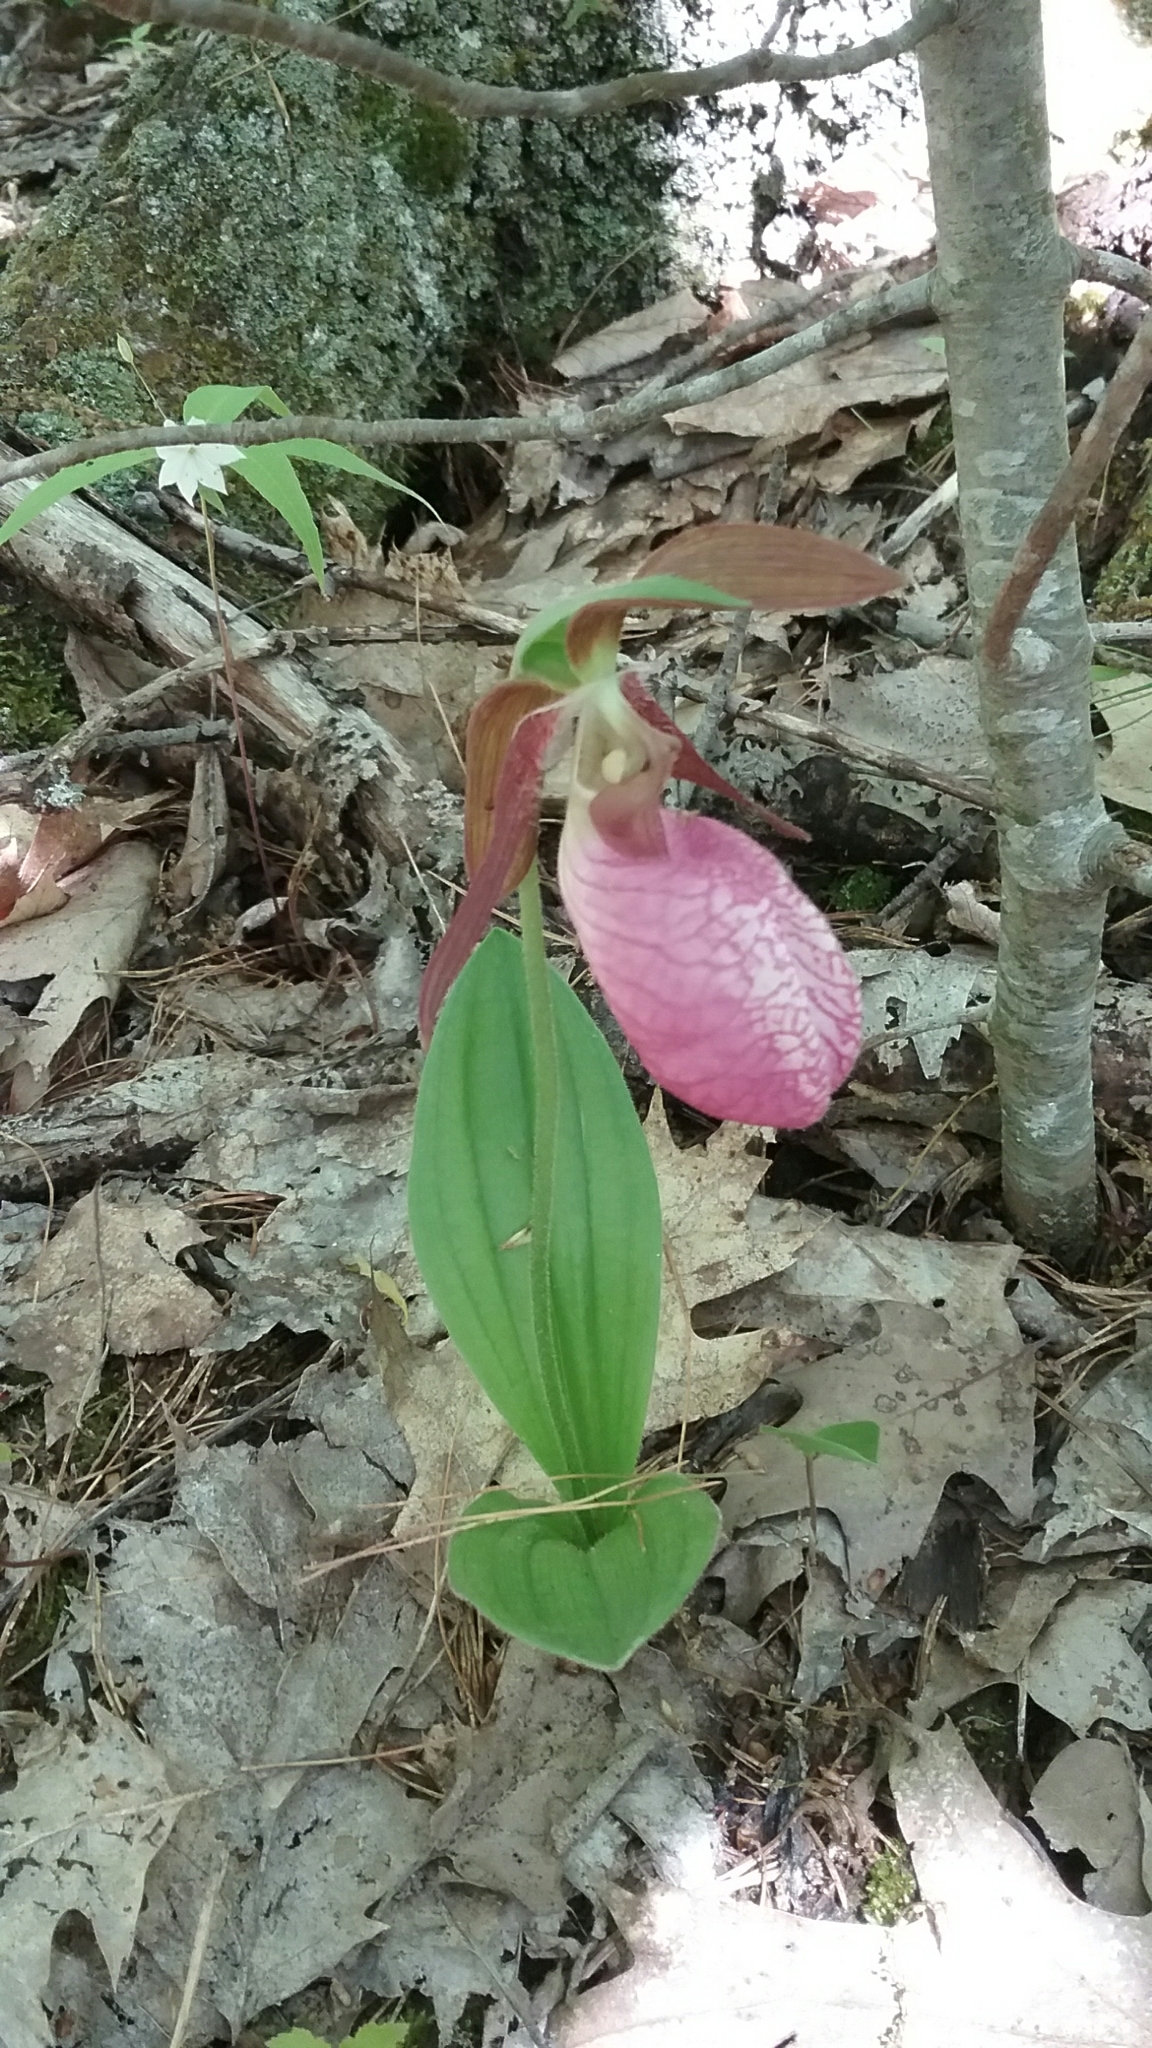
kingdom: Plantae
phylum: Tracheophyta
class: Liliopsida
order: Asparagales
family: Orchidaceae
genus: Cypripedium
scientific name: Cypripedium acaule
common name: Pink lady's-slipper
